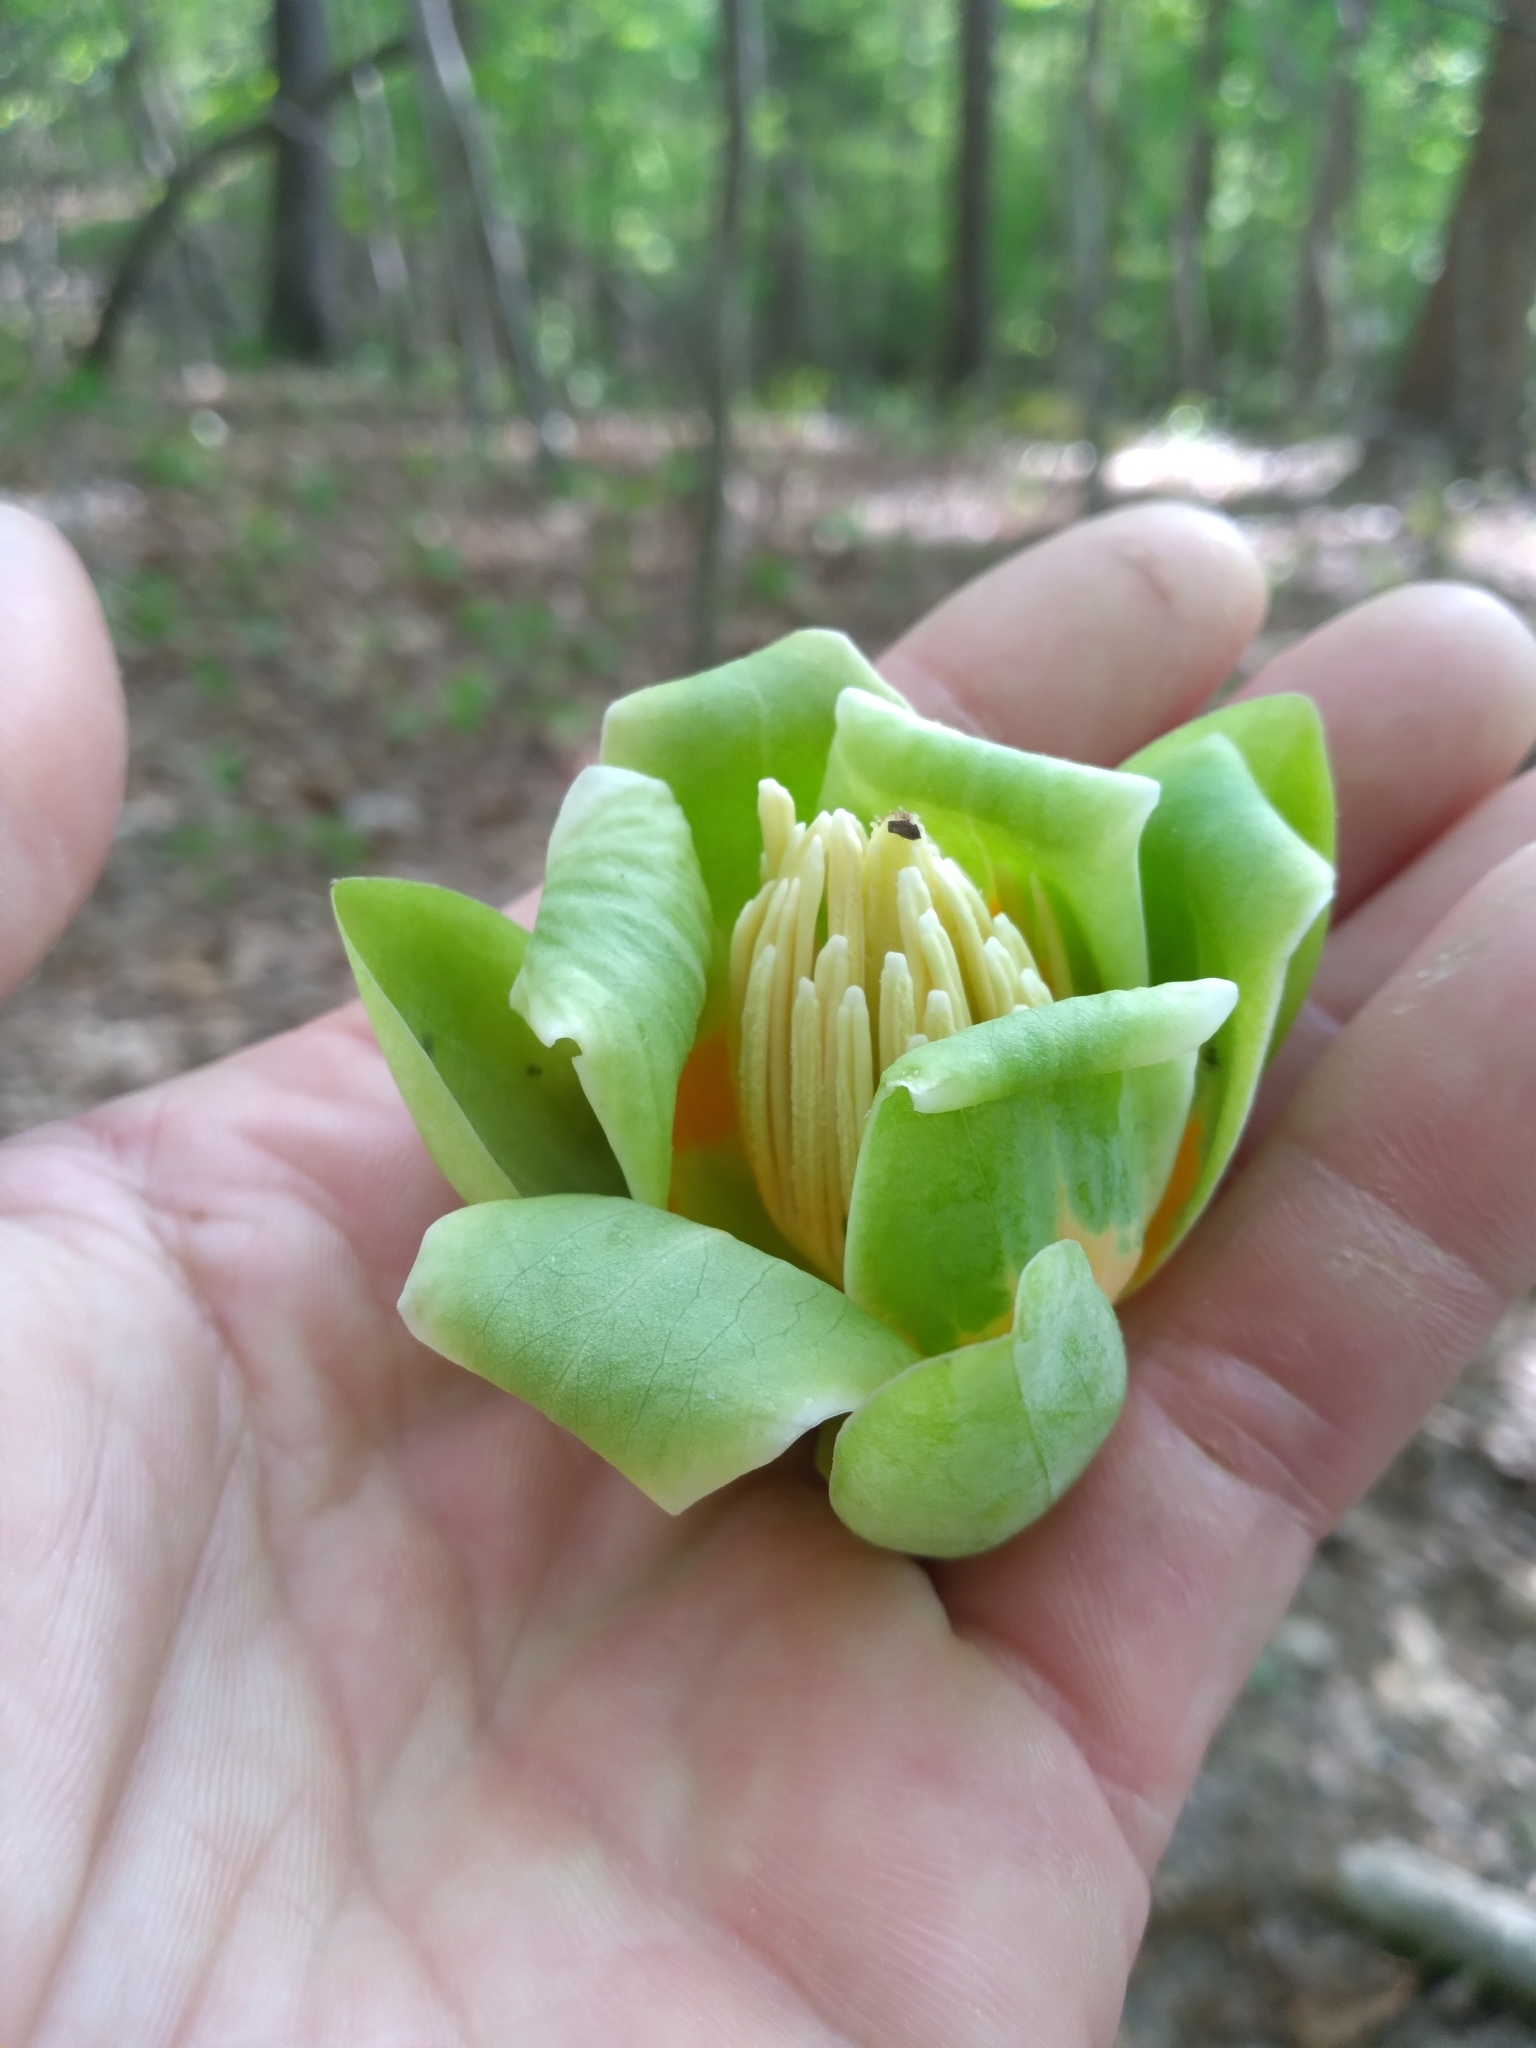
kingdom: Plantae
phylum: Tracheophyta
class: Magnoliopsida
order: Magnoliales
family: Magnoliaceae
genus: Liriodendron
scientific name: Liriodendron tulipifera
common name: Tulip tree
